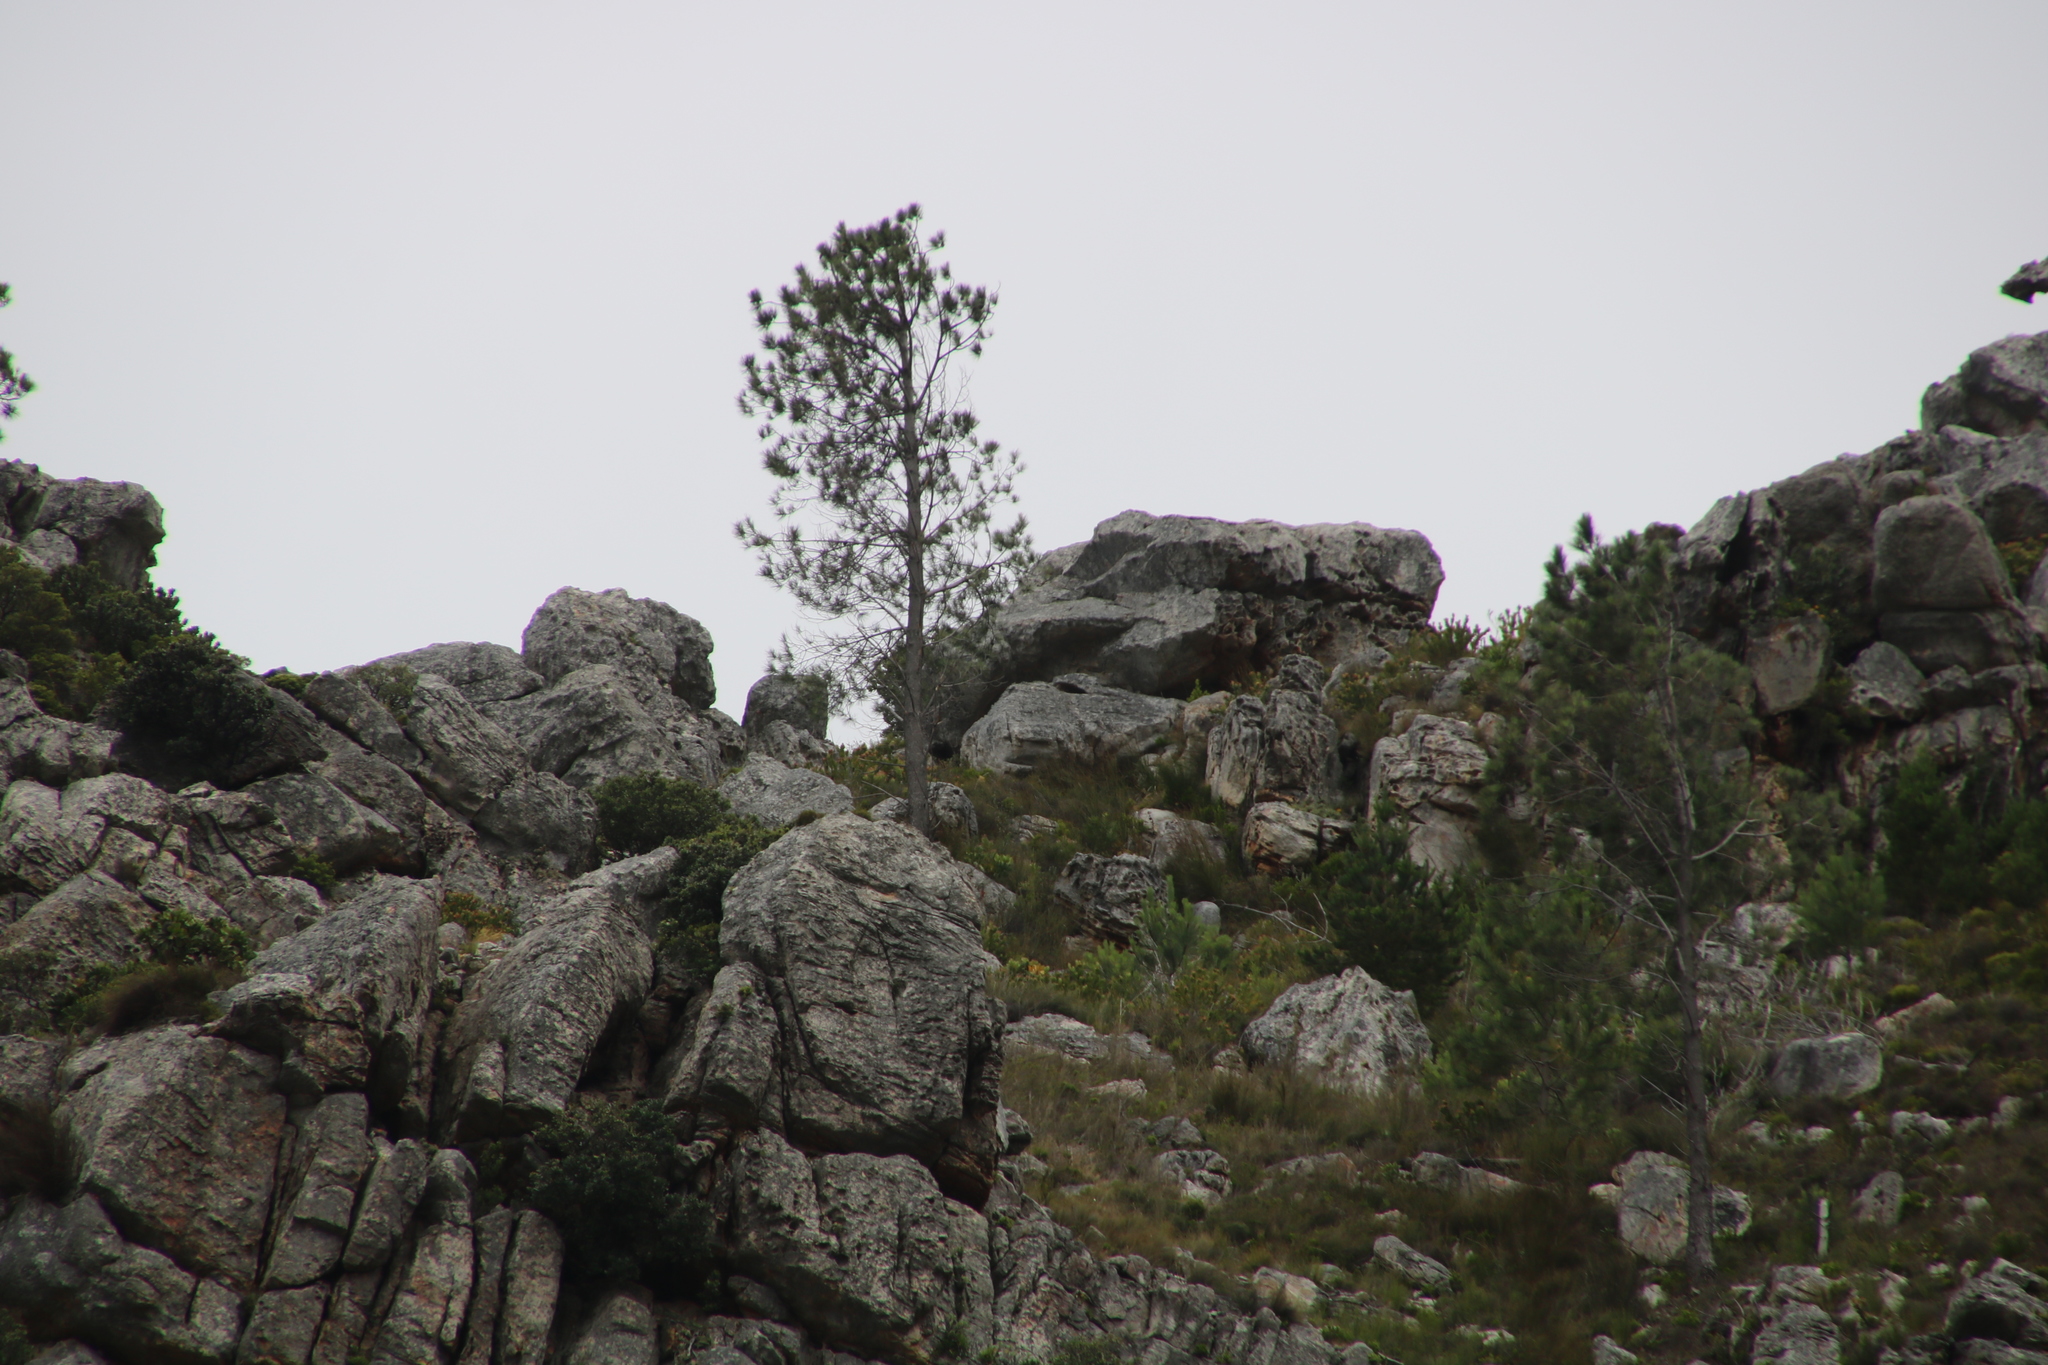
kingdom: Plantae
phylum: Tracheophyta
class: Pinopsida
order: Pinales
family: Pinaceae
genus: Pinus
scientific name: Pinus radiata
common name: Monterey pine
